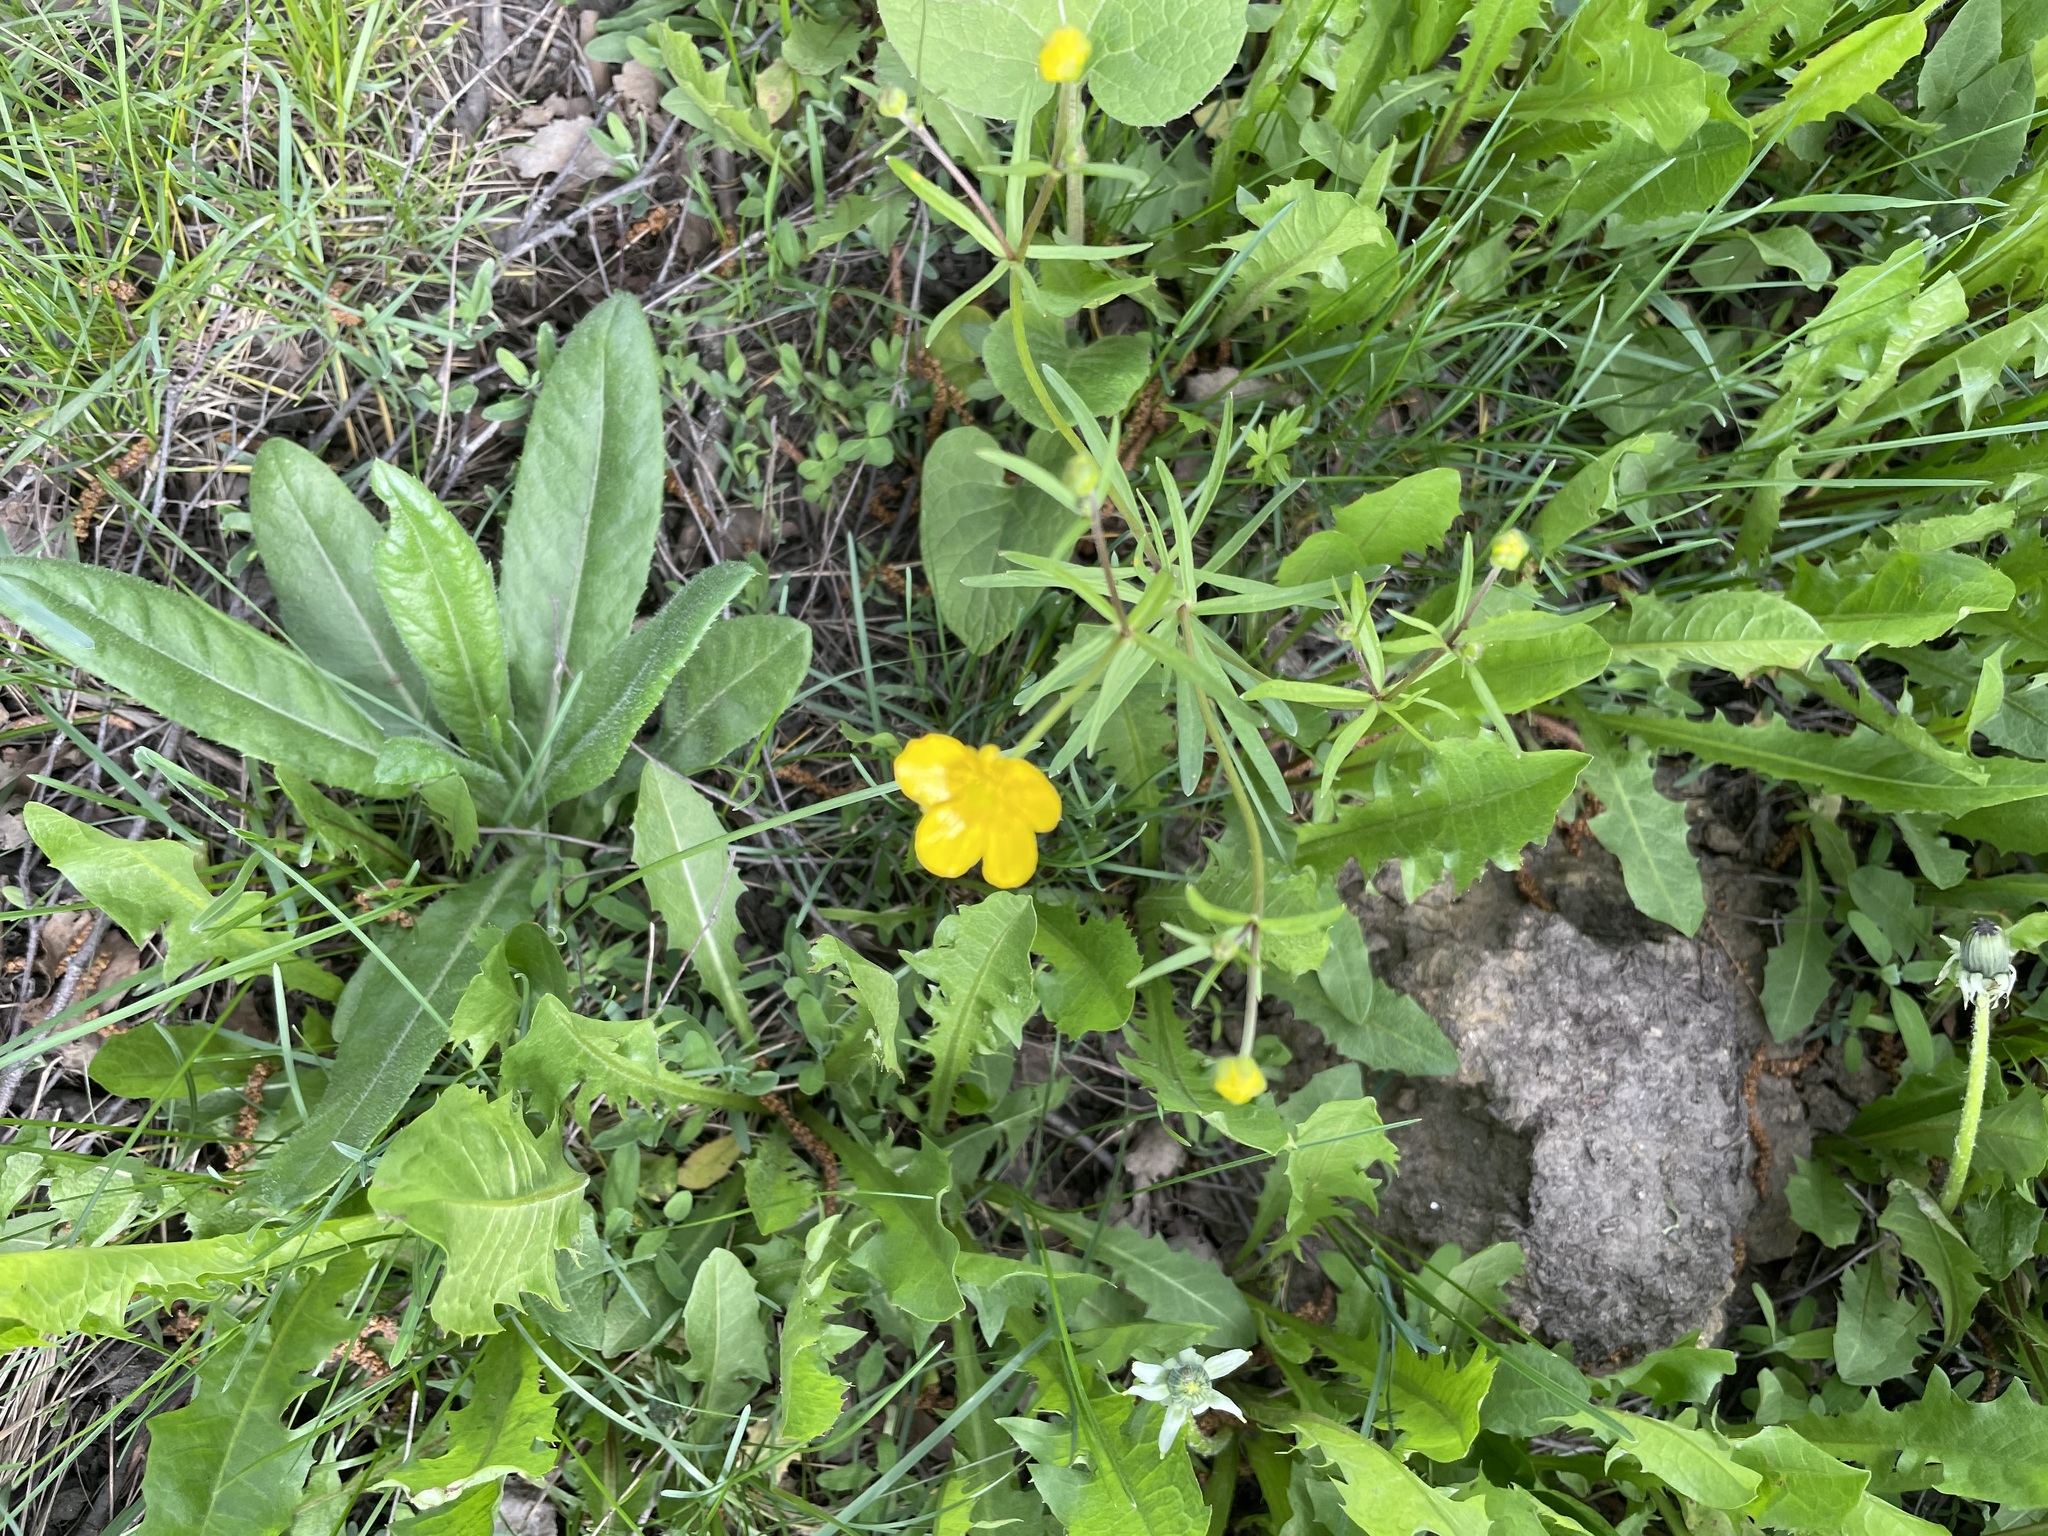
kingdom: Plantae
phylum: Tracheophyta
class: Magnoliopsida
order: Ranunculales
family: Ranunculaceae
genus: Ranunculus
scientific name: Ranunculus auricomus
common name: Goldilocks buttercup
